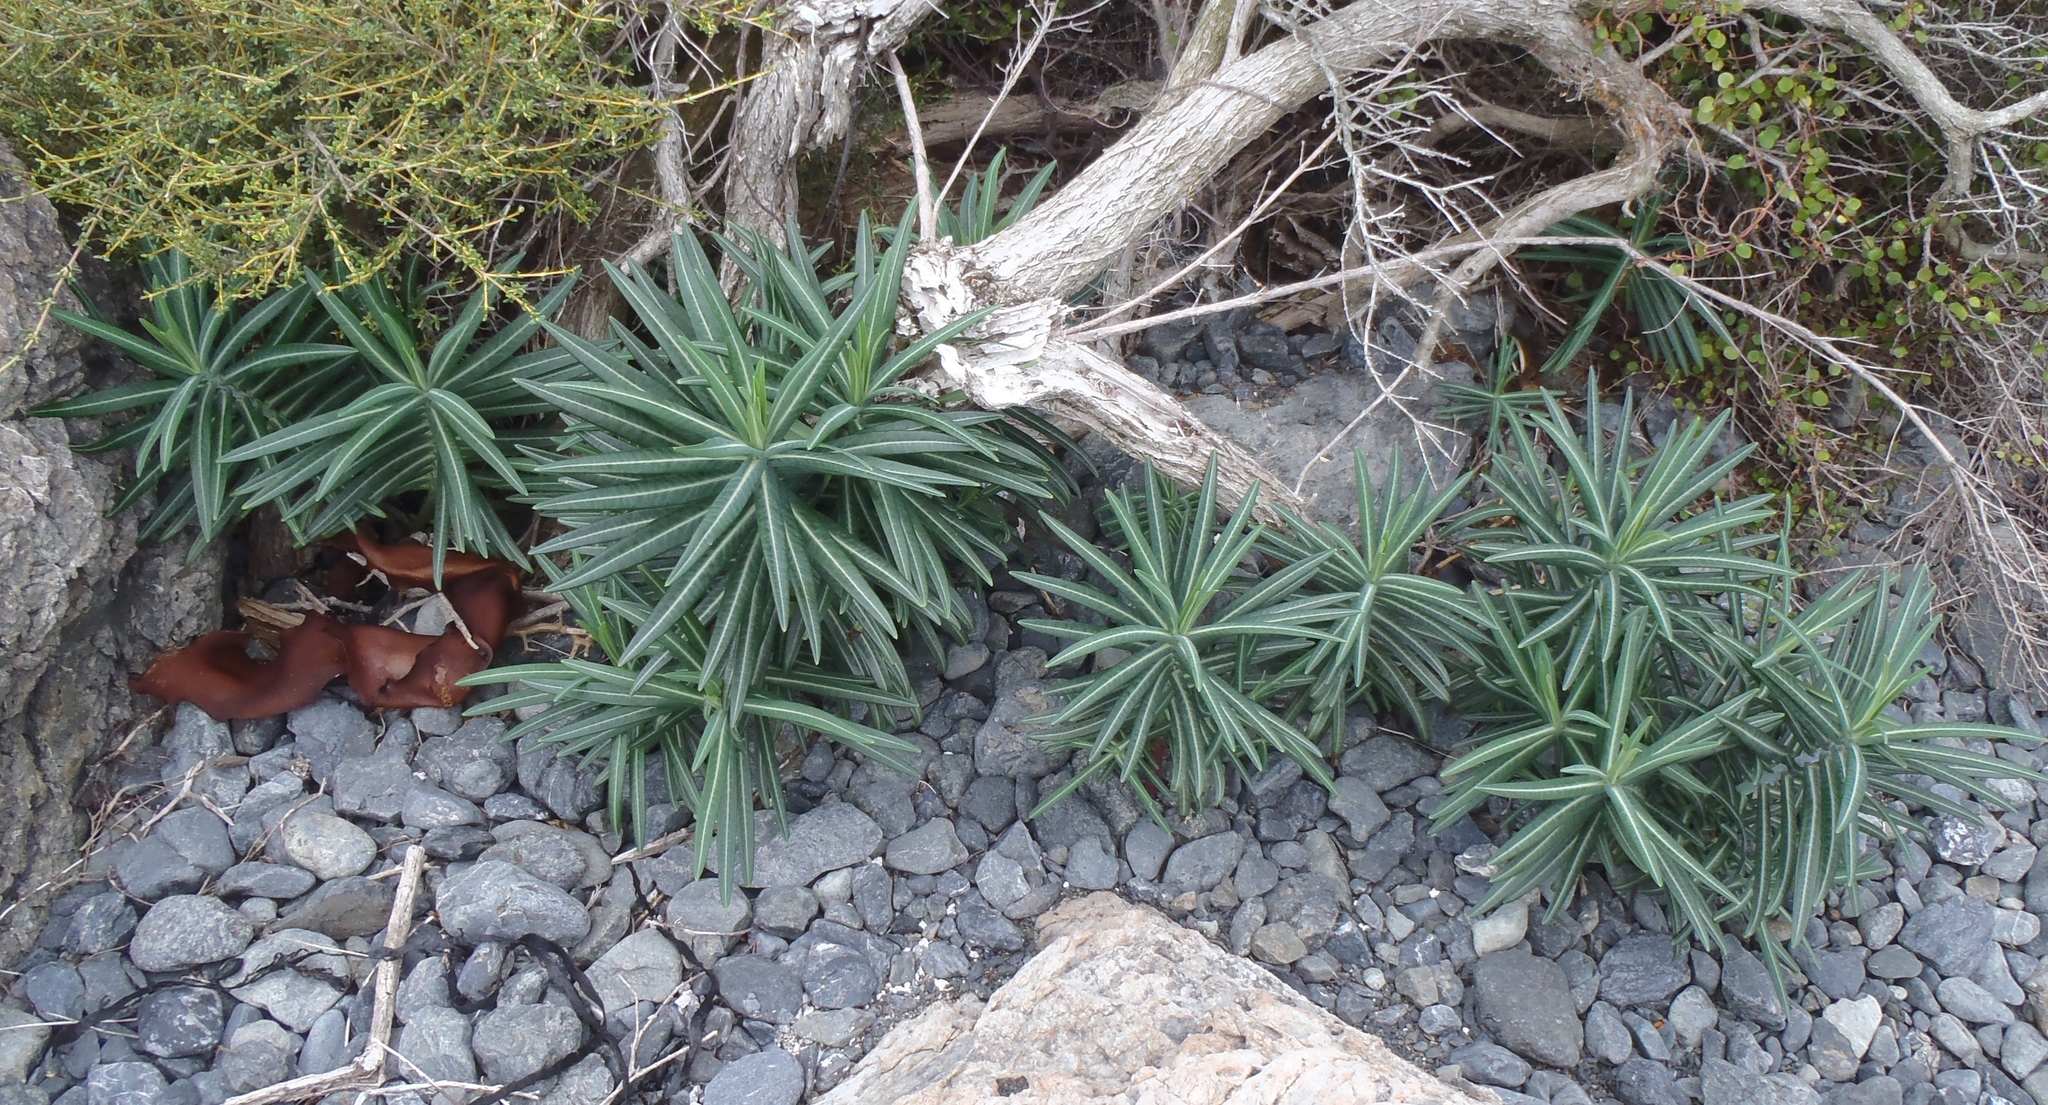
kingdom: Plantae
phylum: Tracheophyta
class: Magnoliopsida
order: Malpighiales
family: Euphorbiaceae
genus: Euphorbia
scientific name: Euphorbia lathyris
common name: Caper spurge
